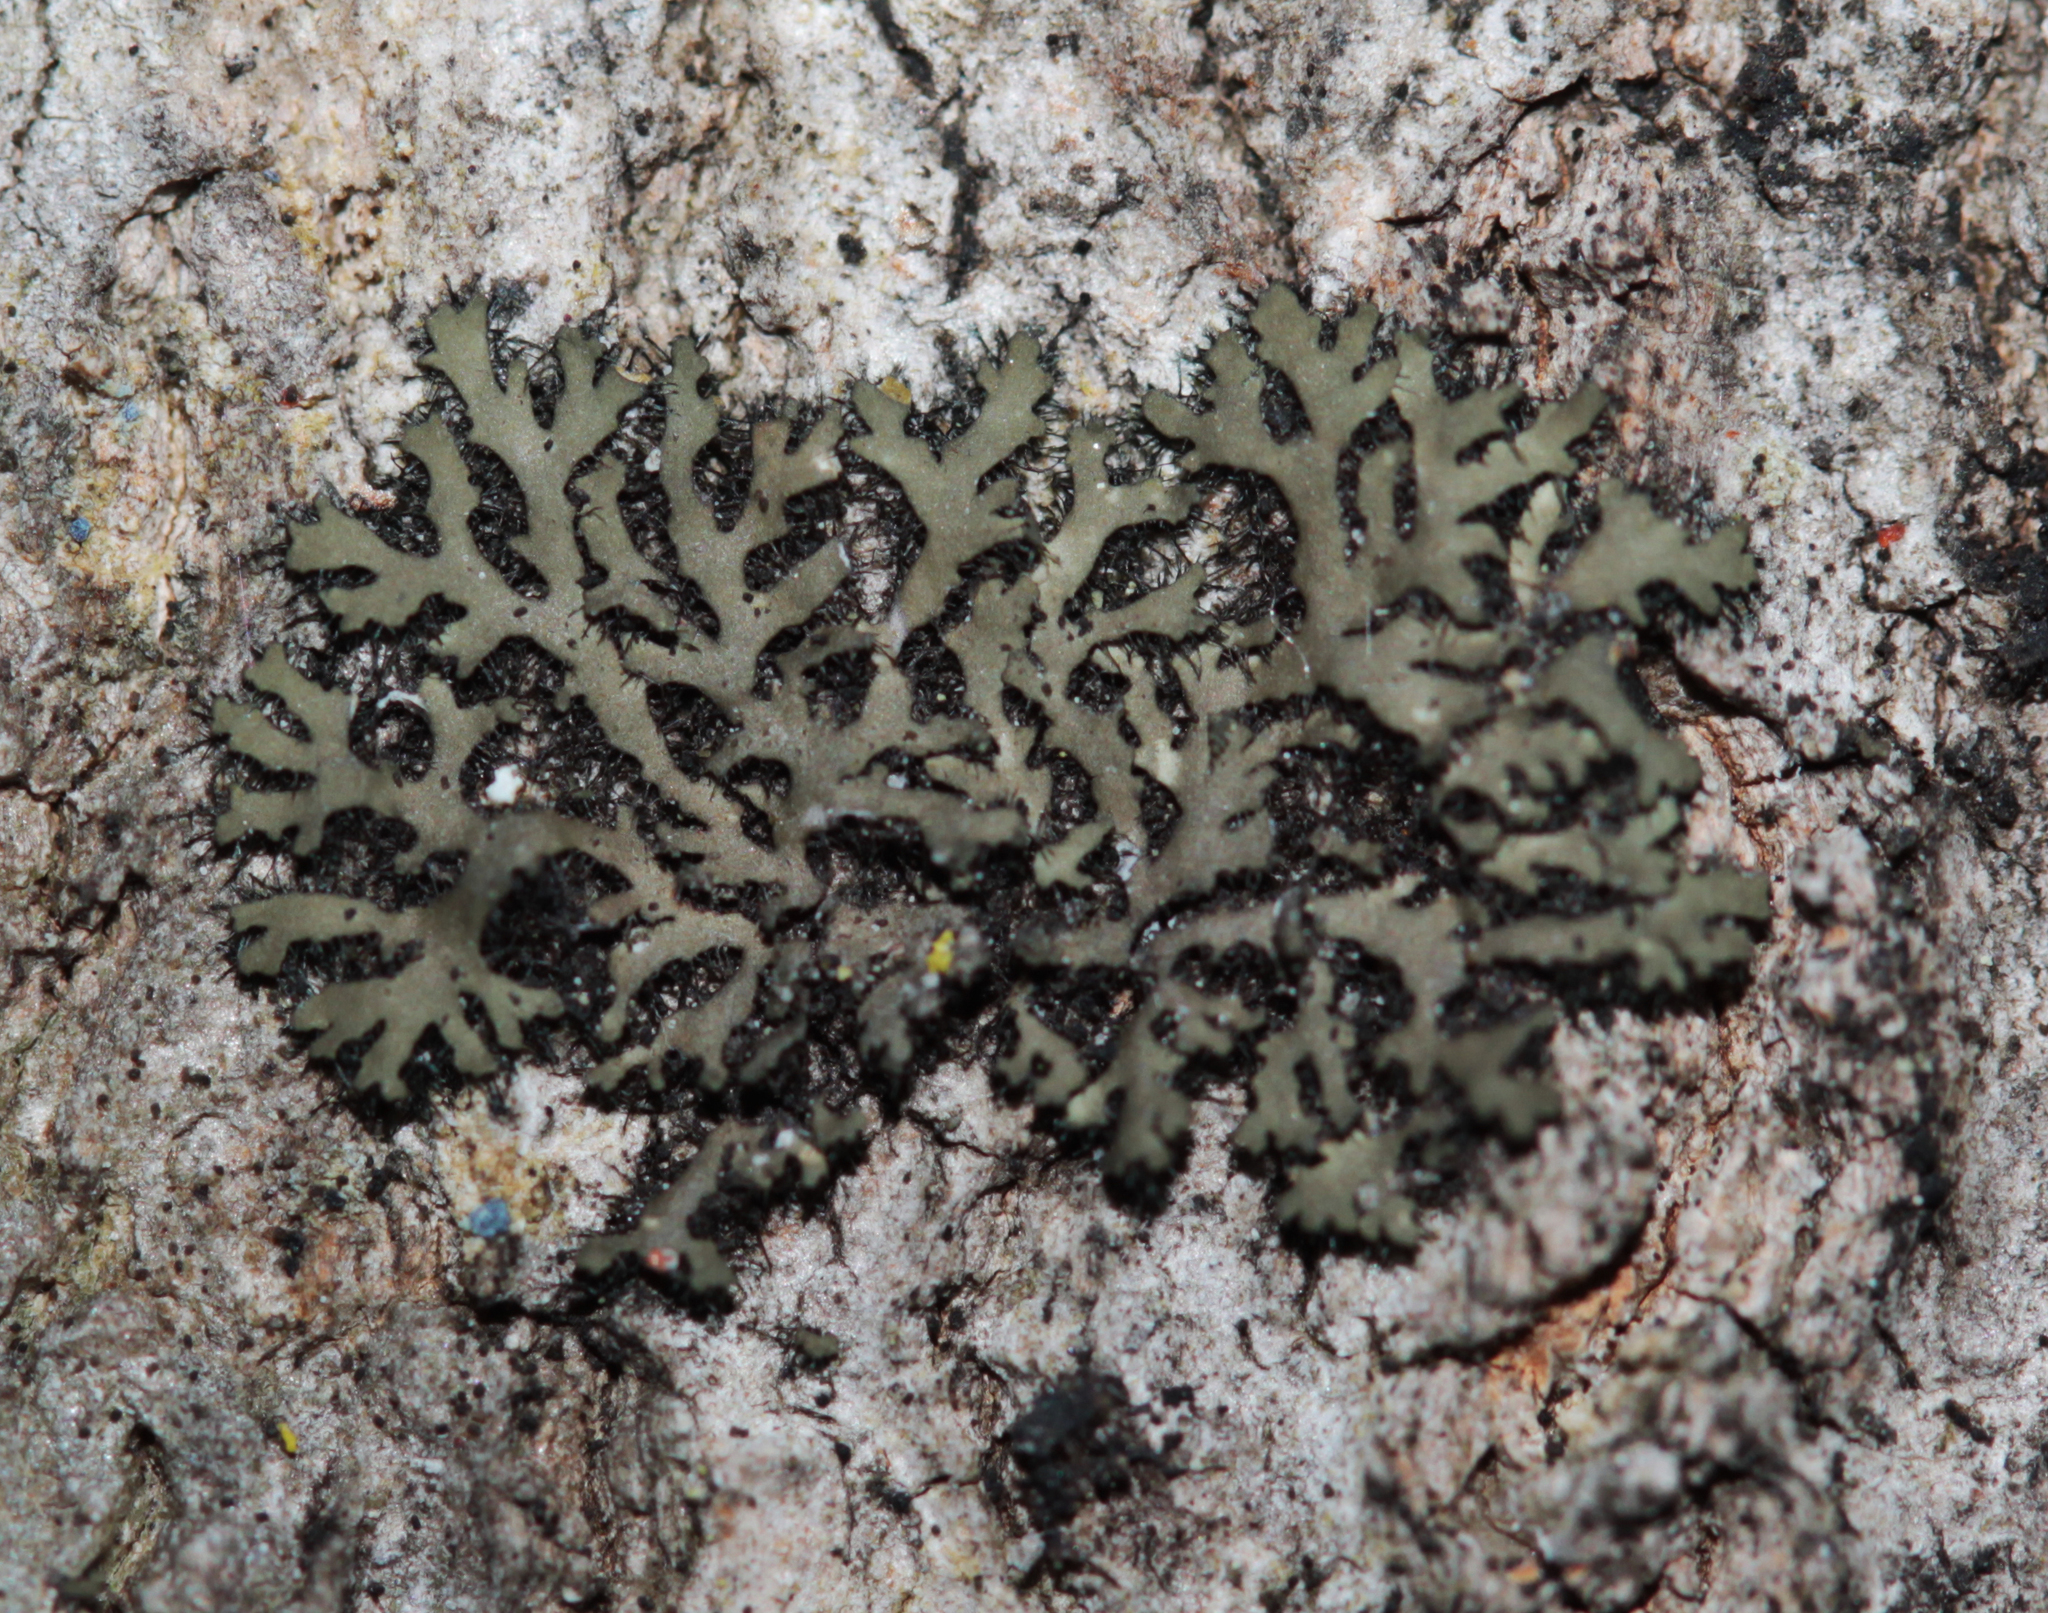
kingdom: Fungi
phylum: Ascomycota
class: Lecanoromycetes
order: Caliciales
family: Physciaceae
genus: Phaeophyscia
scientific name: Phaeophyscia rubropulchra
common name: Orange-cored shadow lichen
